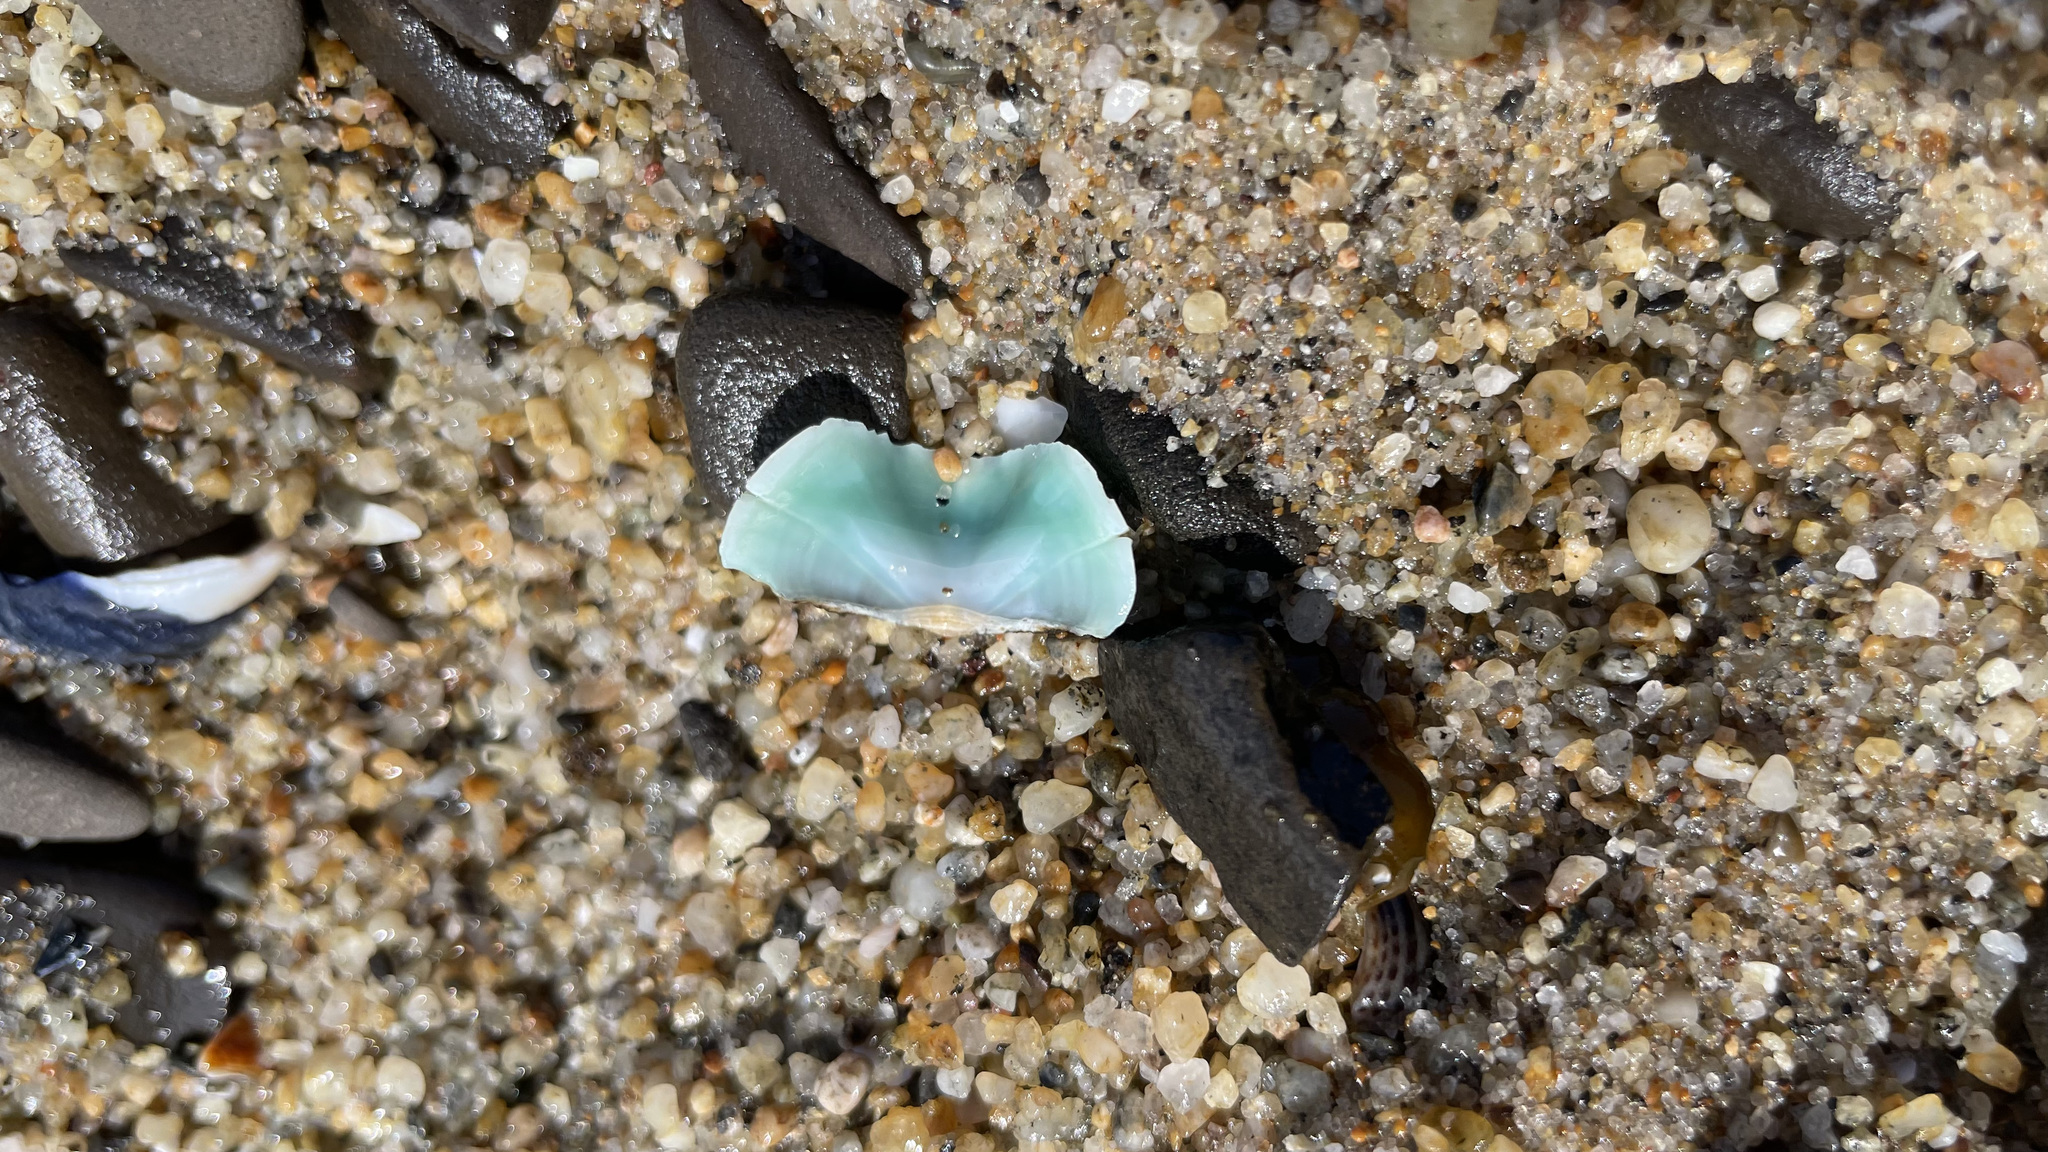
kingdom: Animalia
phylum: Mollusca
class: Polyplacophora
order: Chitonida
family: Mopaliidae
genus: Mopalia
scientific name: Mopalia muscosa
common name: Mossy chiton
